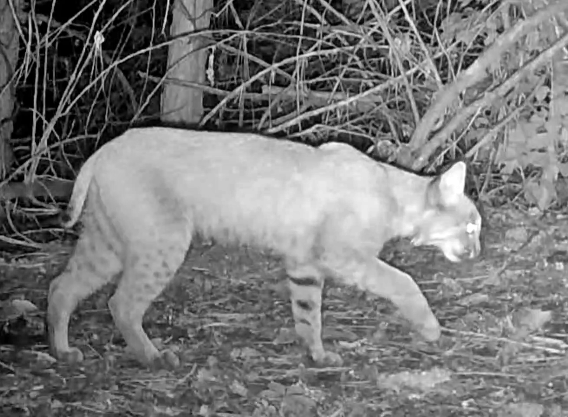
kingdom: Animalia
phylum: Chordata
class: Mammalia
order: Carnivora
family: Felidae
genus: Lynx
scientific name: Lynx rufus
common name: Bobcat
